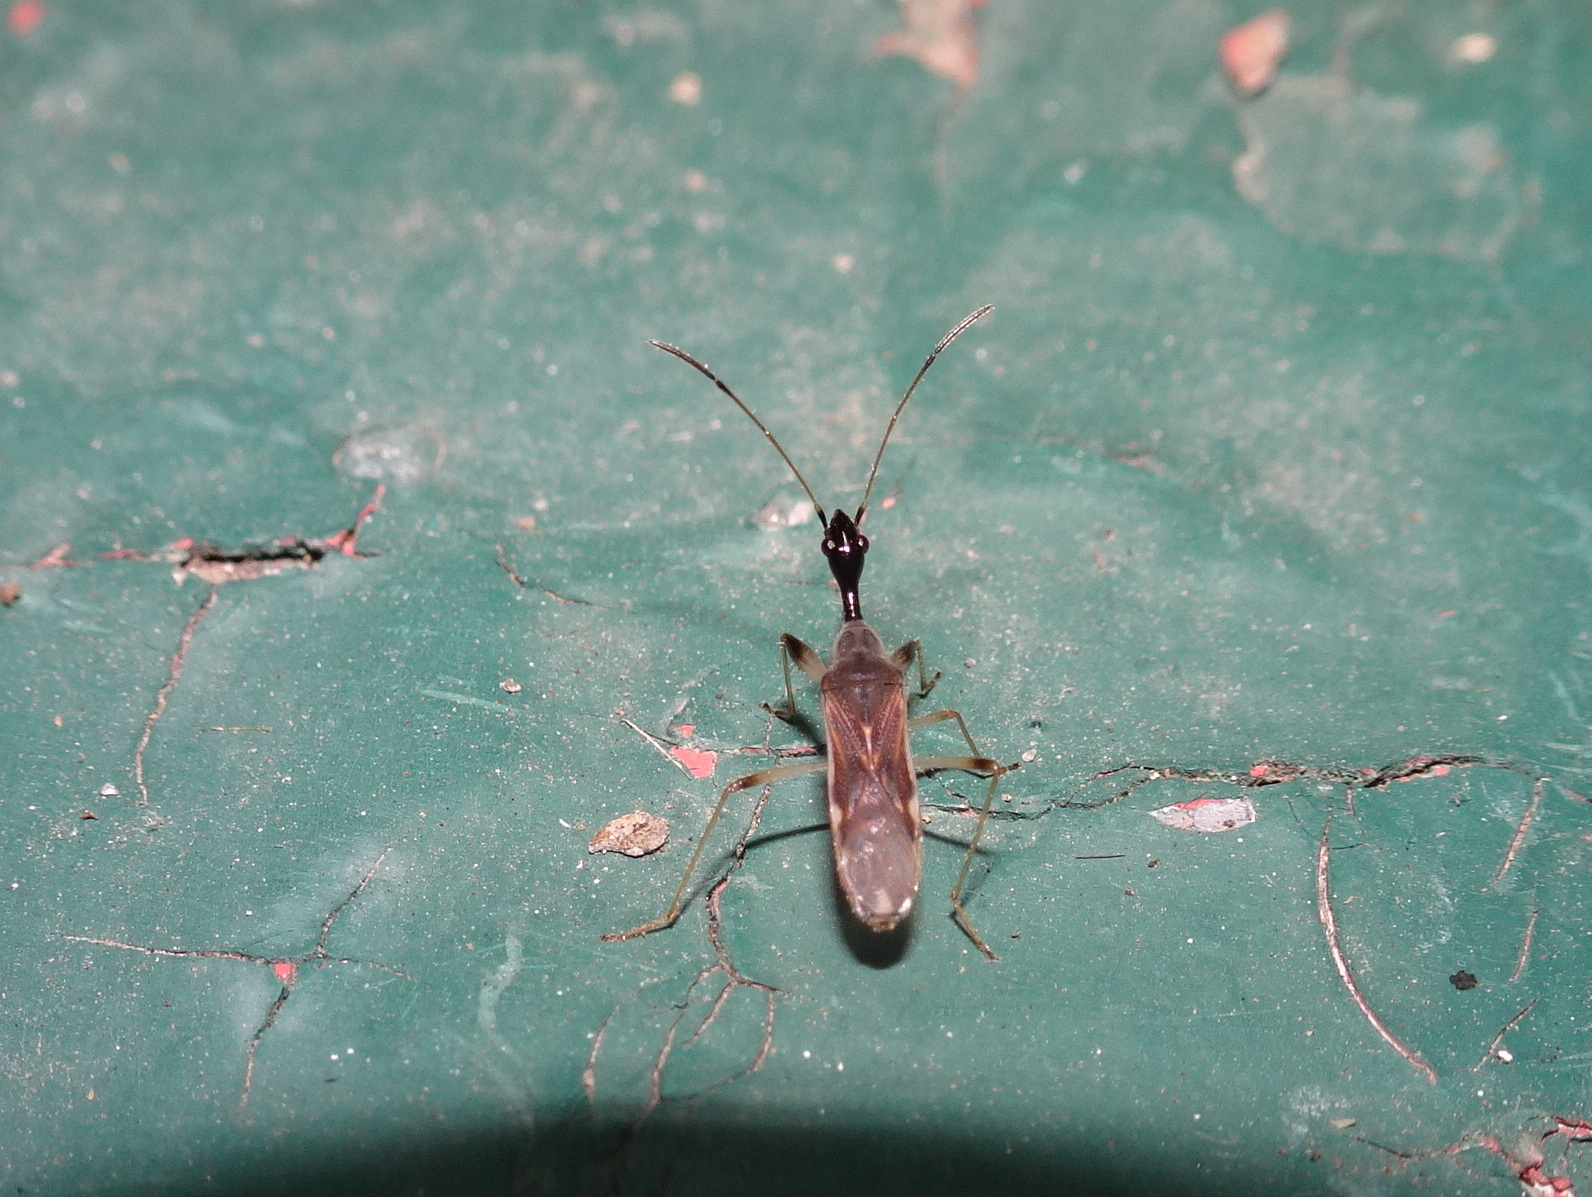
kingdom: Animalia
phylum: Arthropoda
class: Insecta
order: Hemiptera
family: Rhyparochromidae
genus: Myodocha
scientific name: Myodocha serripes
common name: Long-necked seed bug
